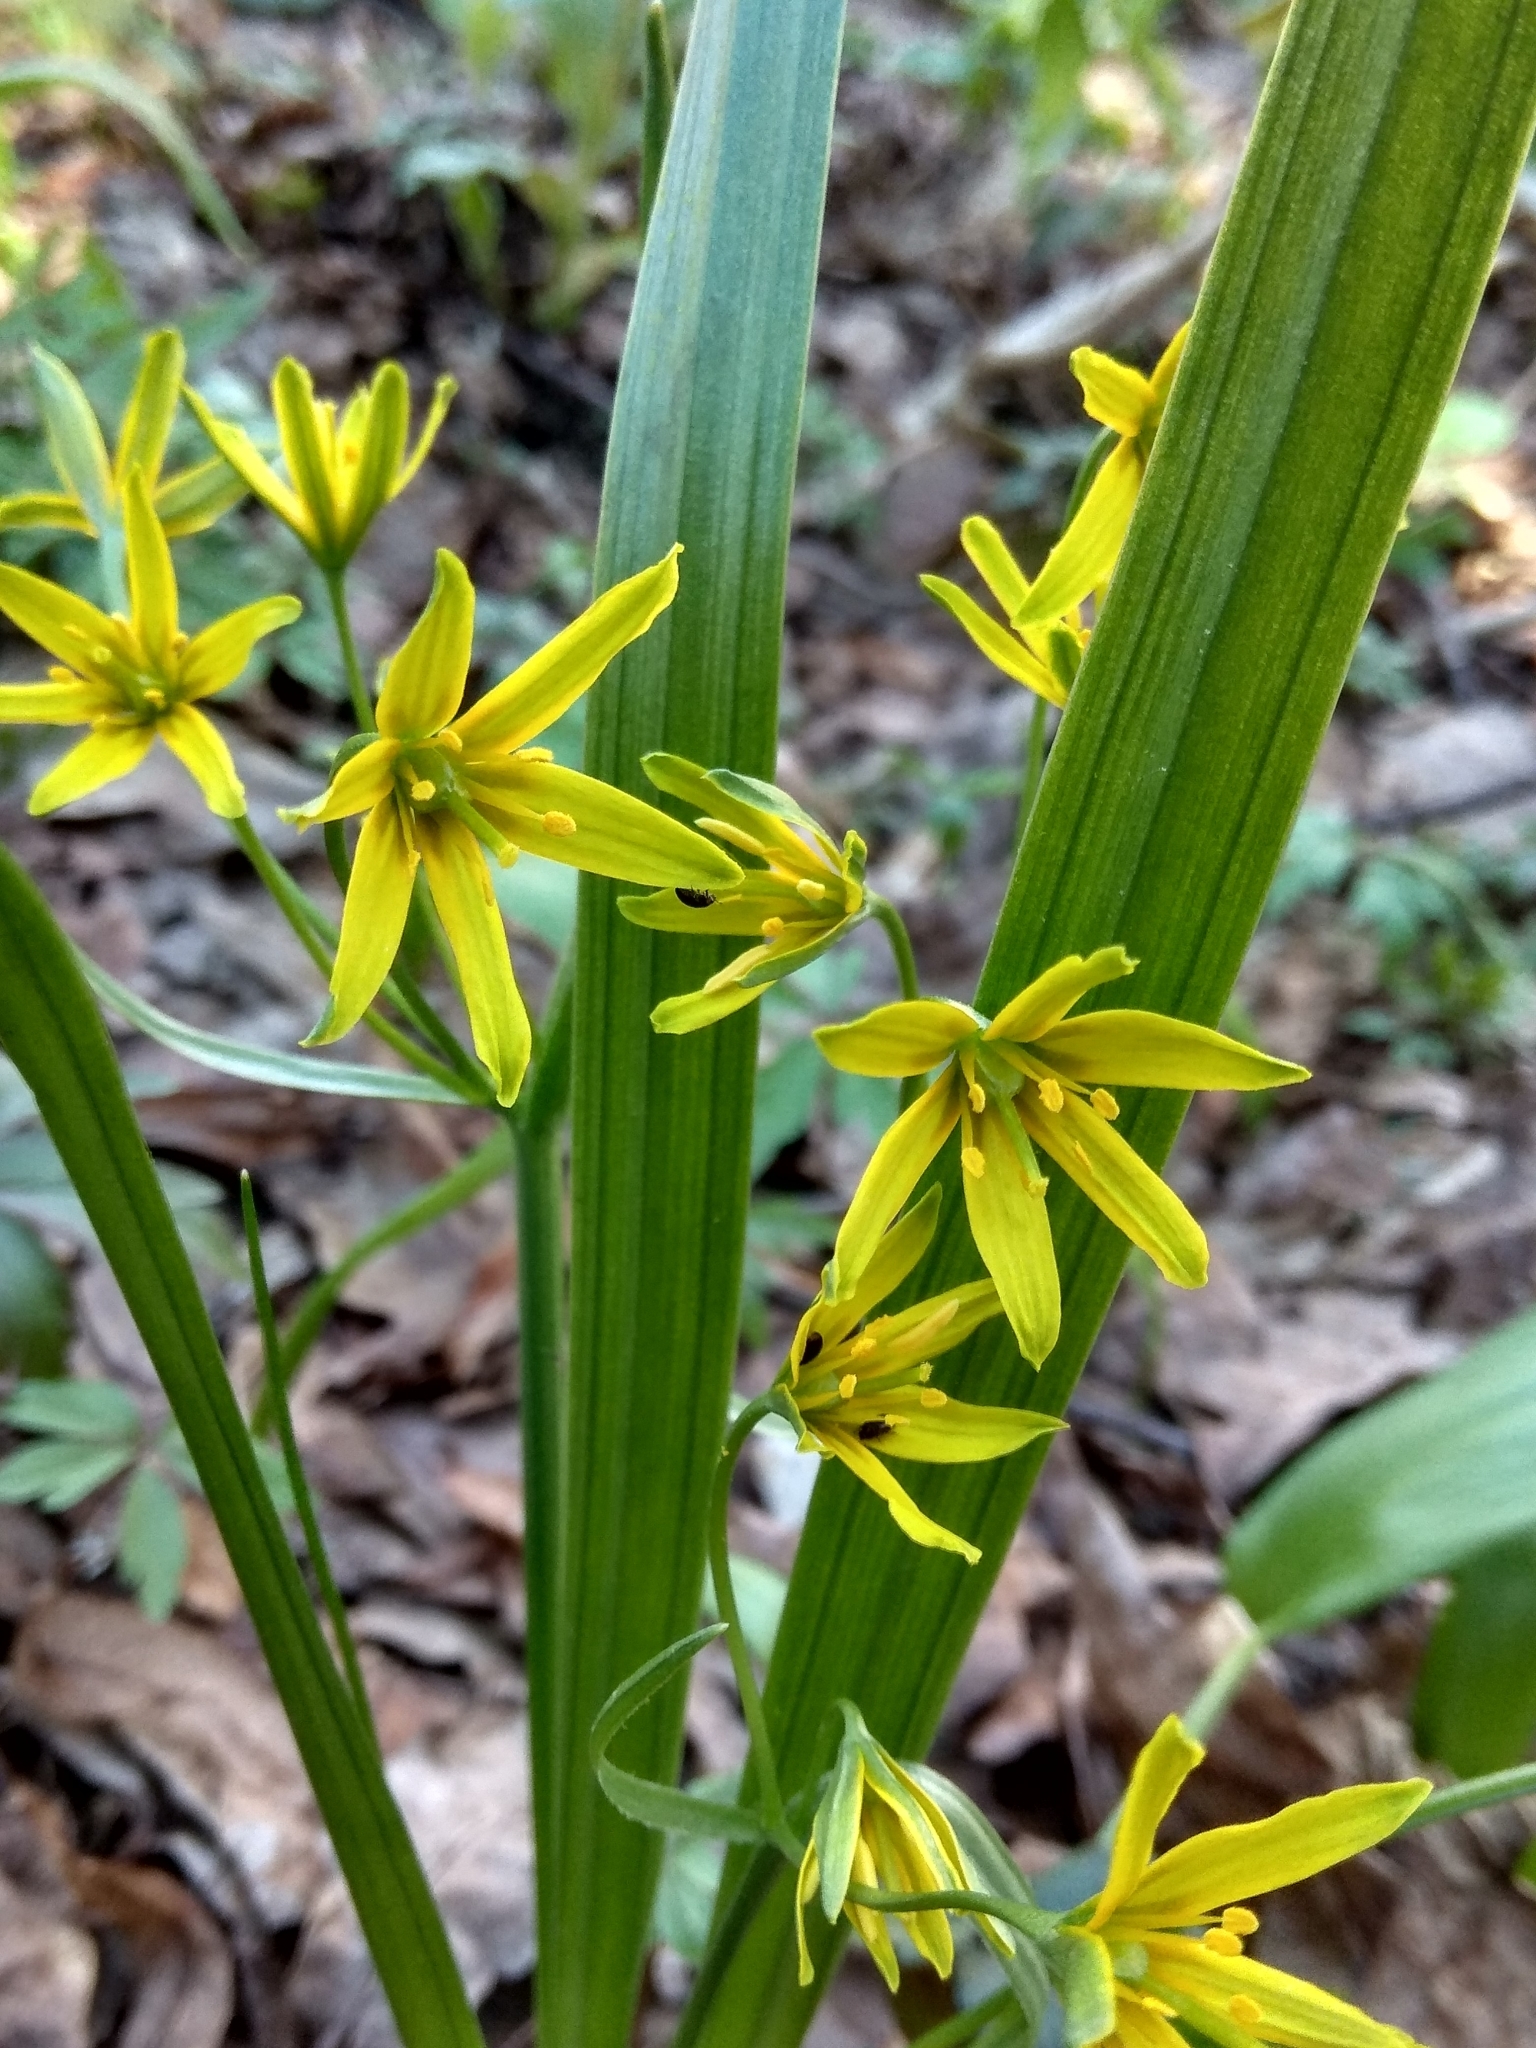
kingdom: Plantae
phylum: Tracheophyta
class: Liliopsida
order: Liliales
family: Liliaceae
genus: Gagea
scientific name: Gagea lutea
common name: Yellow star-of-bethlehem
